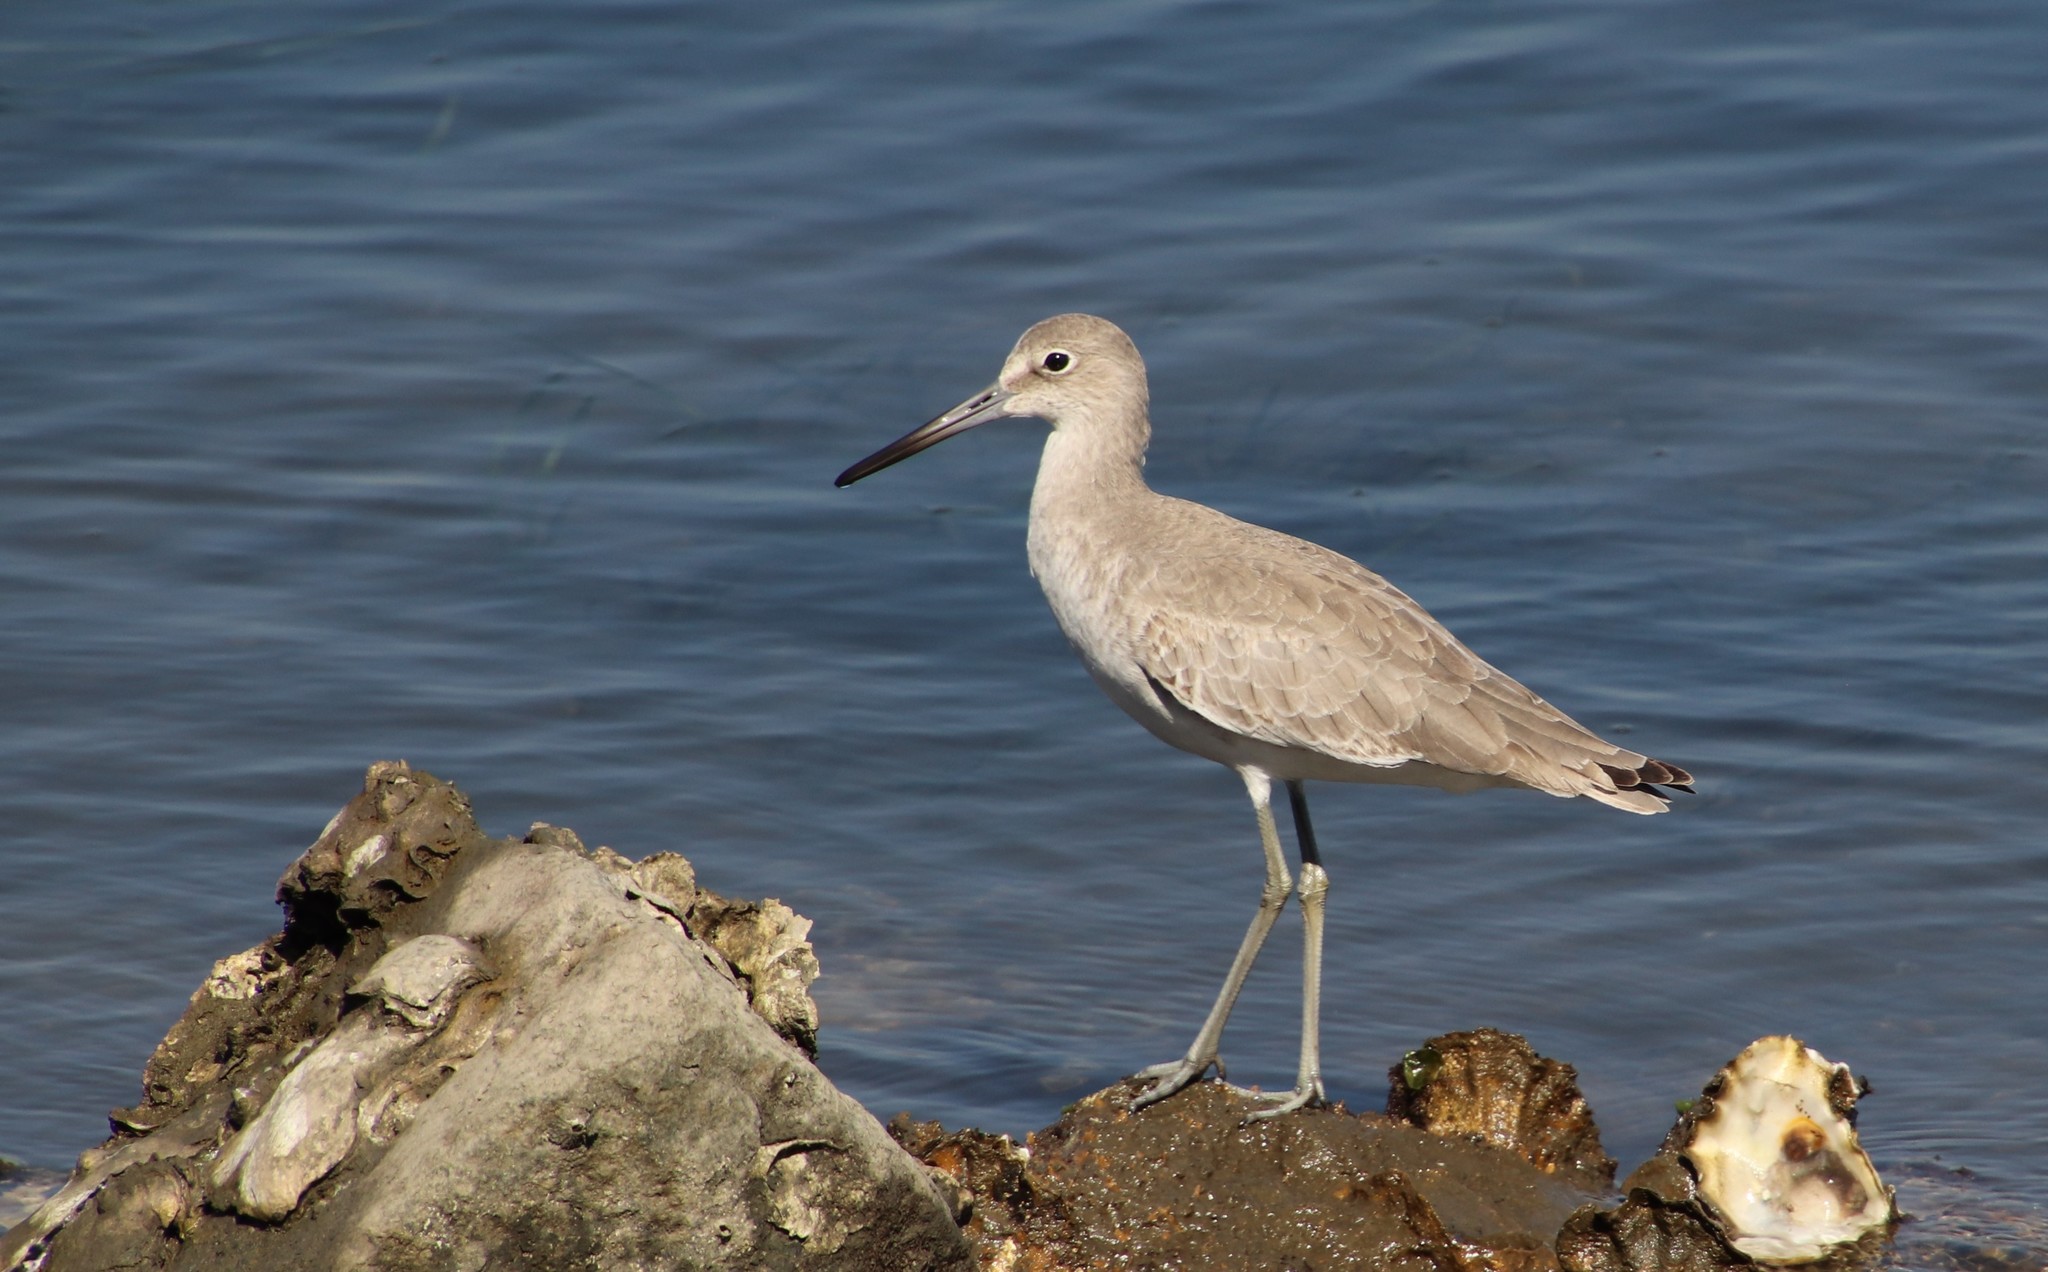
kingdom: Animalia
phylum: Chordata
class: Aves
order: Charadriiformes
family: Scolopacidae
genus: Tringa
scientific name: Tringa semipalmata
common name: Willet
